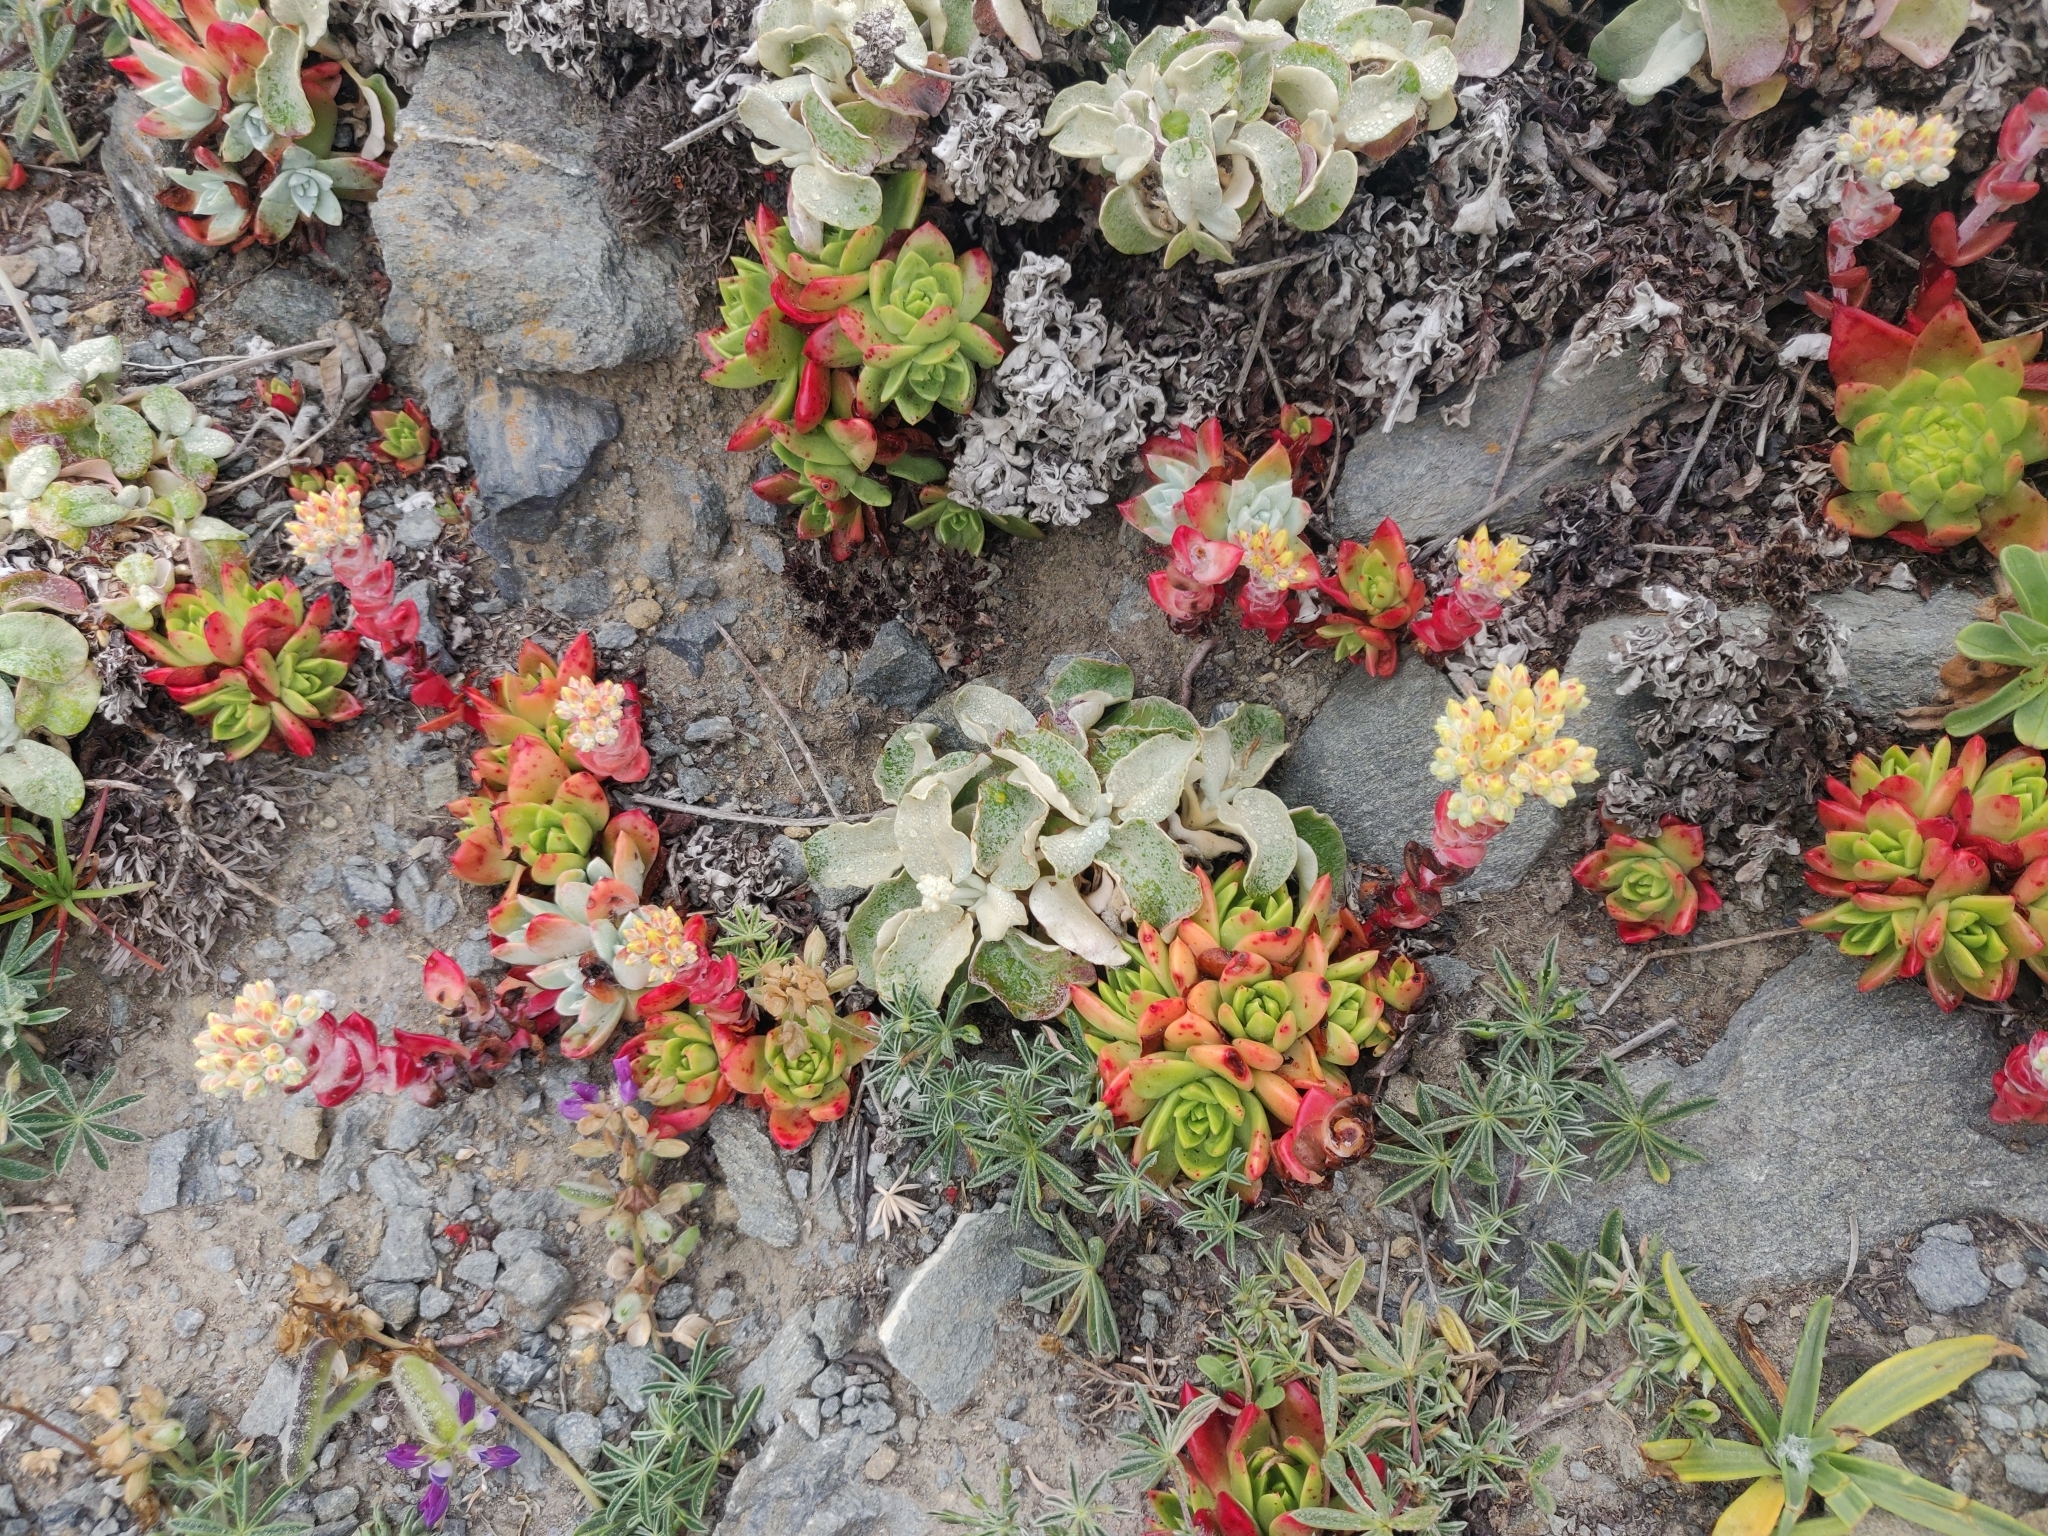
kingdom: Plantae
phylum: Tracheophyta
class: Magnoliopsida
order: Saxifragales
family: Crassulaceae
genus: Dudleya
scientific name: Dudleya farinosa
